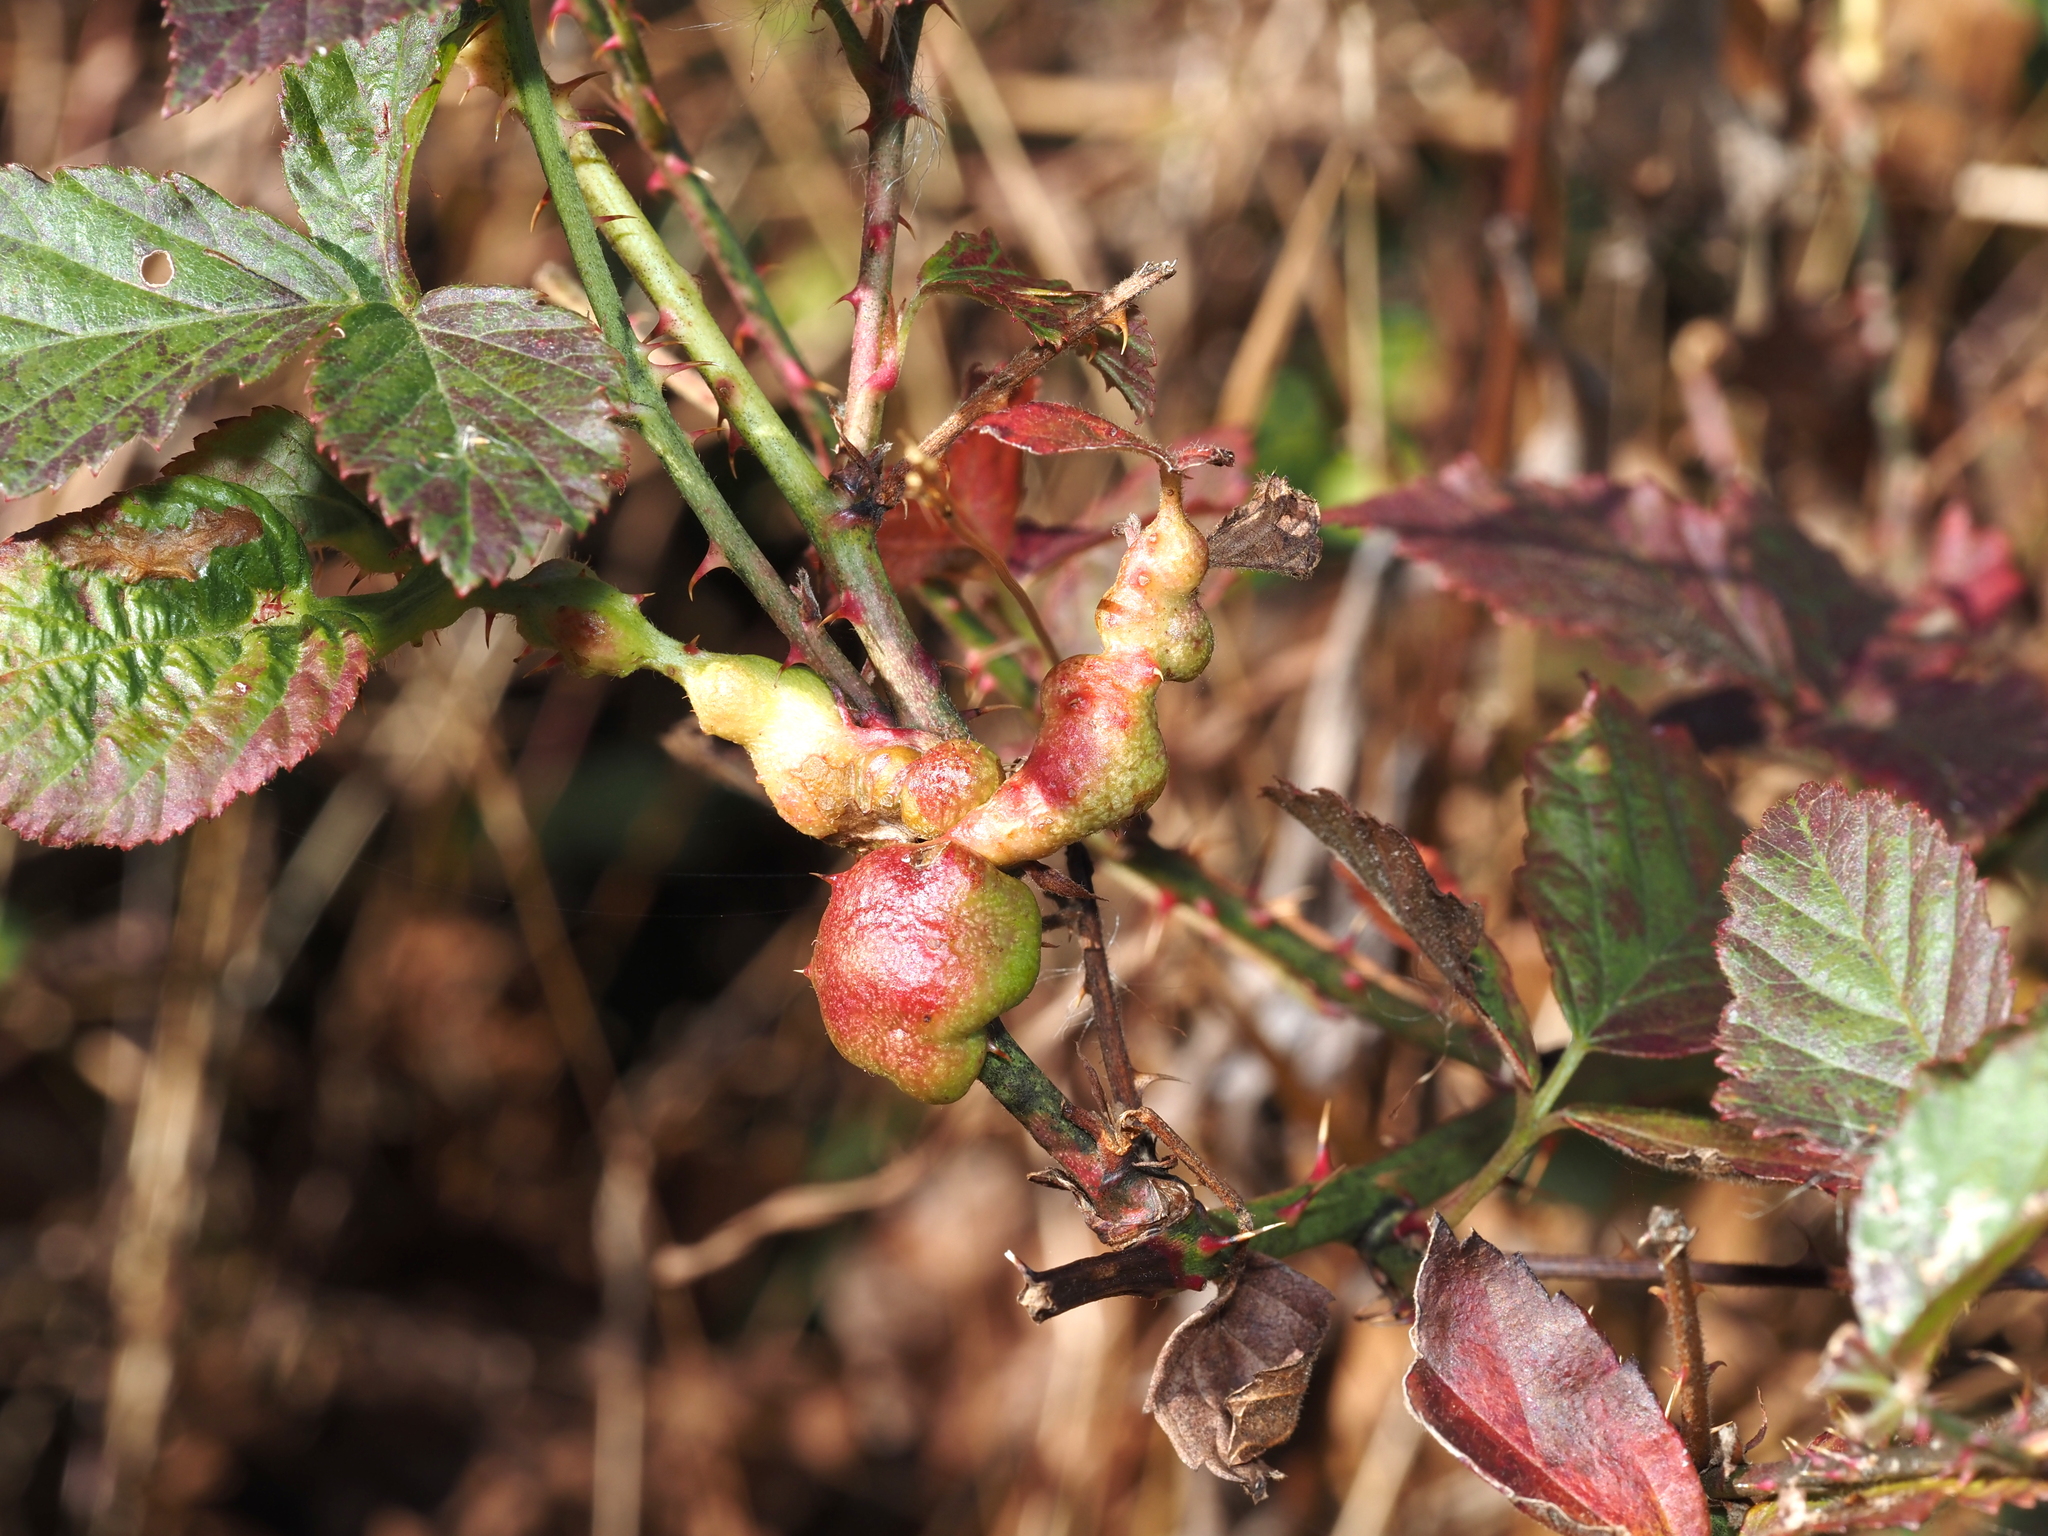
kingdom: Animalia
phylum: Arthropoda
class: Insecta
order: Hymenoptera
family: Cynipidae
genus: Diastrophus
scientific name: Diastrophus
